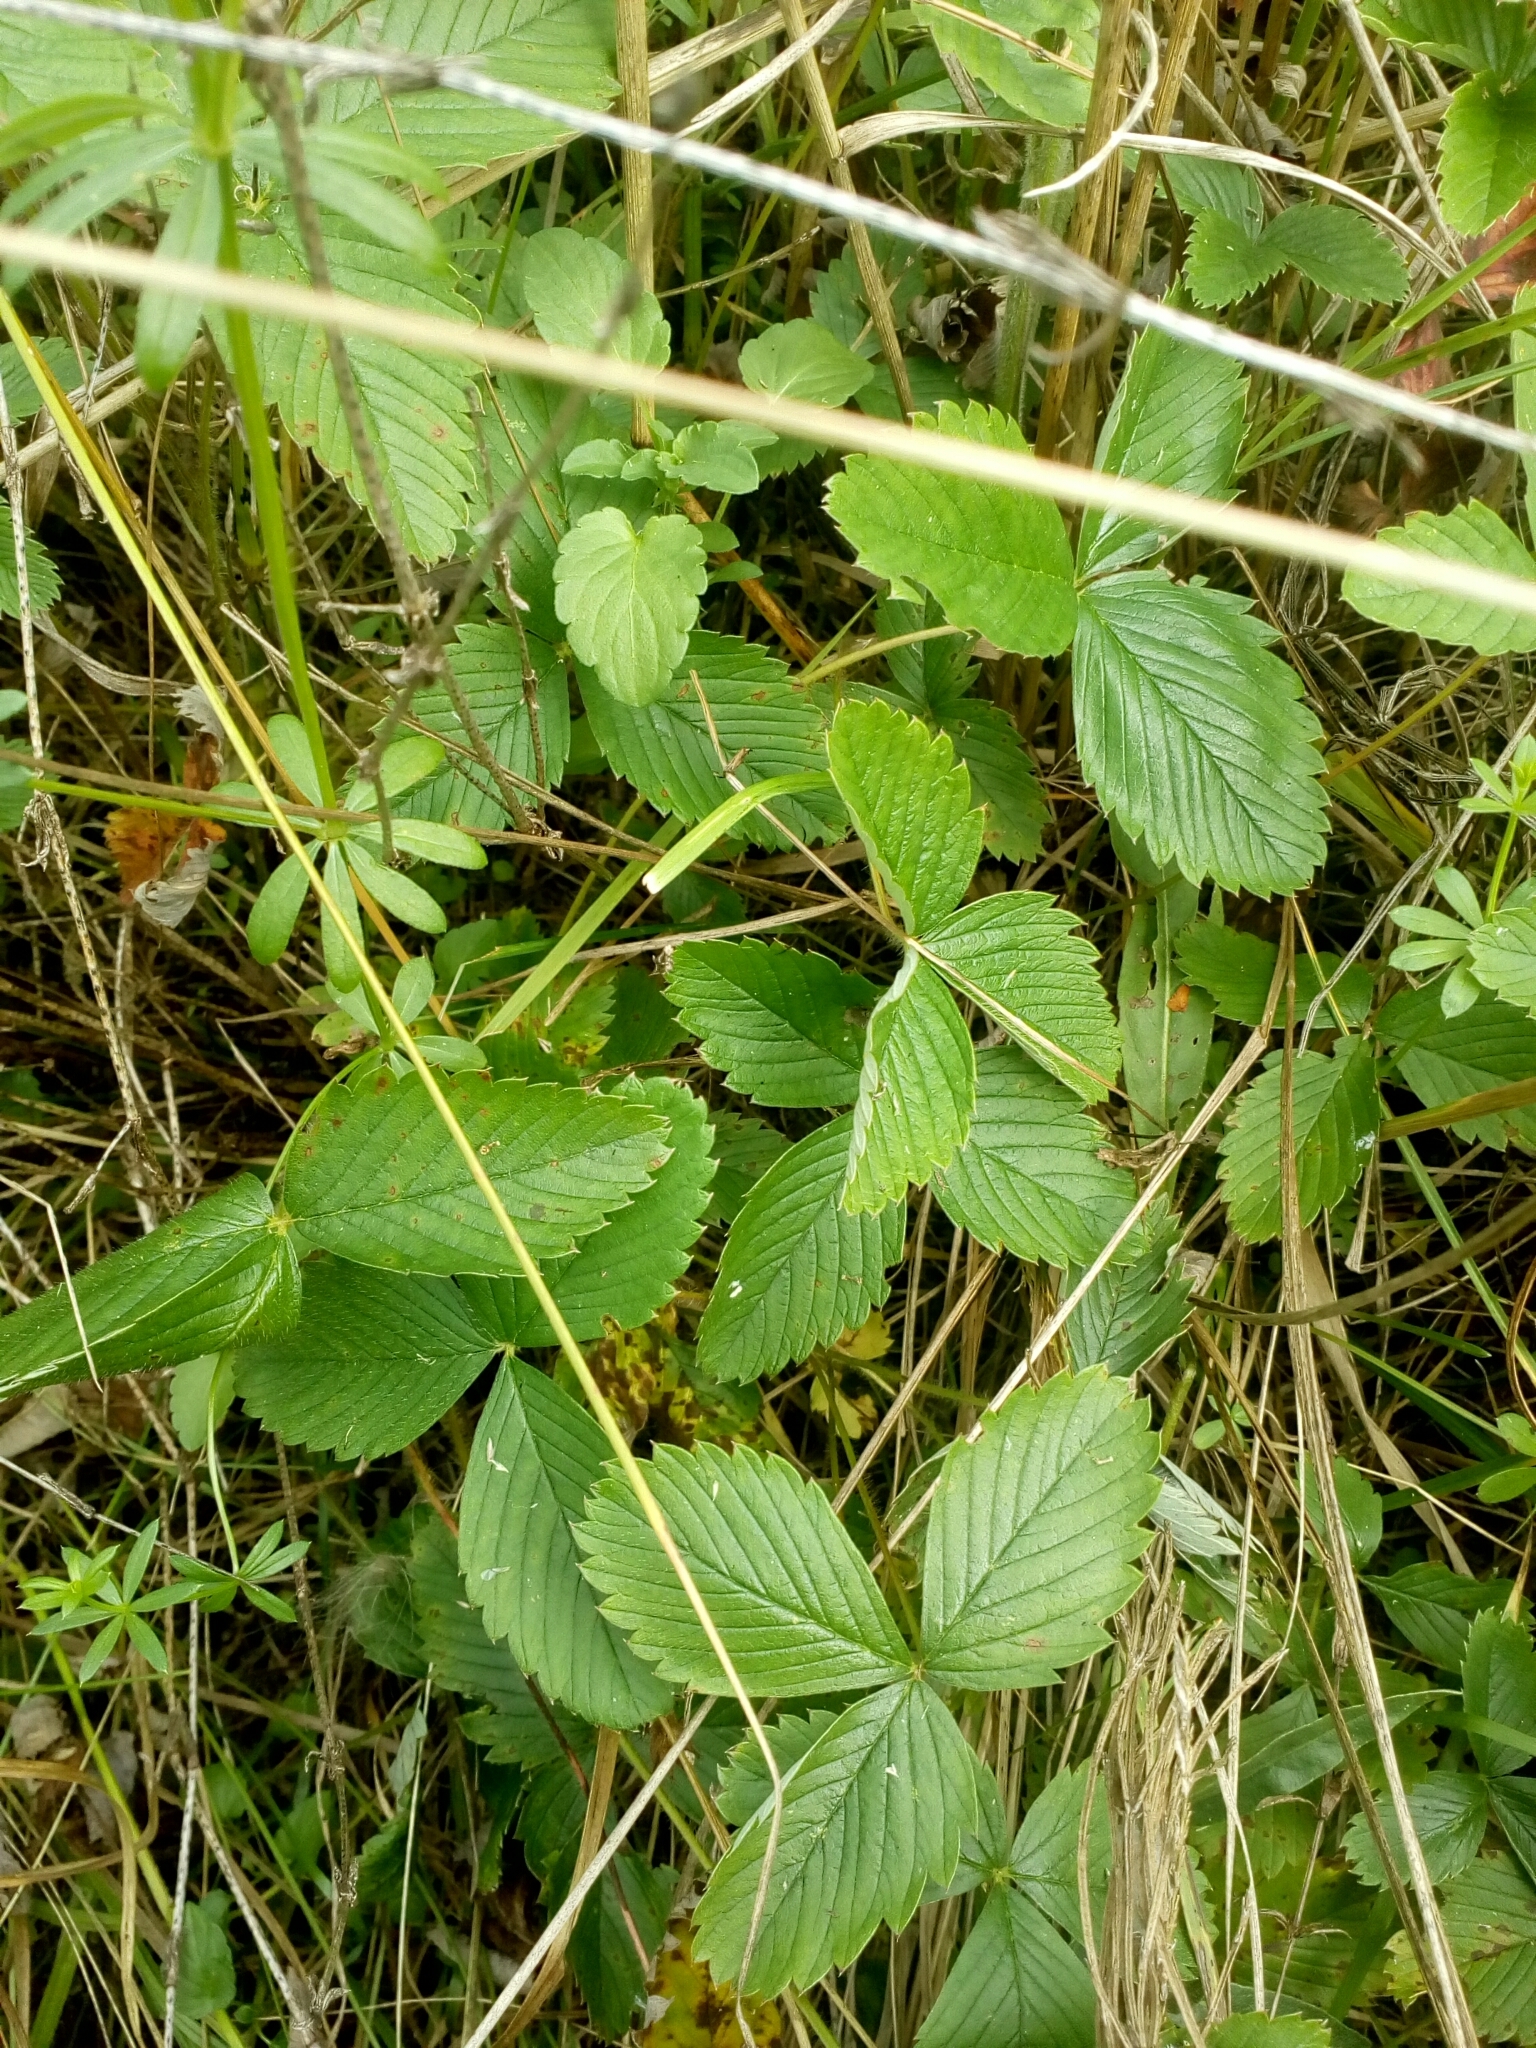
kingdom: Plantae
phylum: Tracheophyta
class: Magnoliopsida
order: Rosales
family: Rosaceae
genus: Fragaria
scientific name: Fragaria vesca
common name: Wild strawberry
